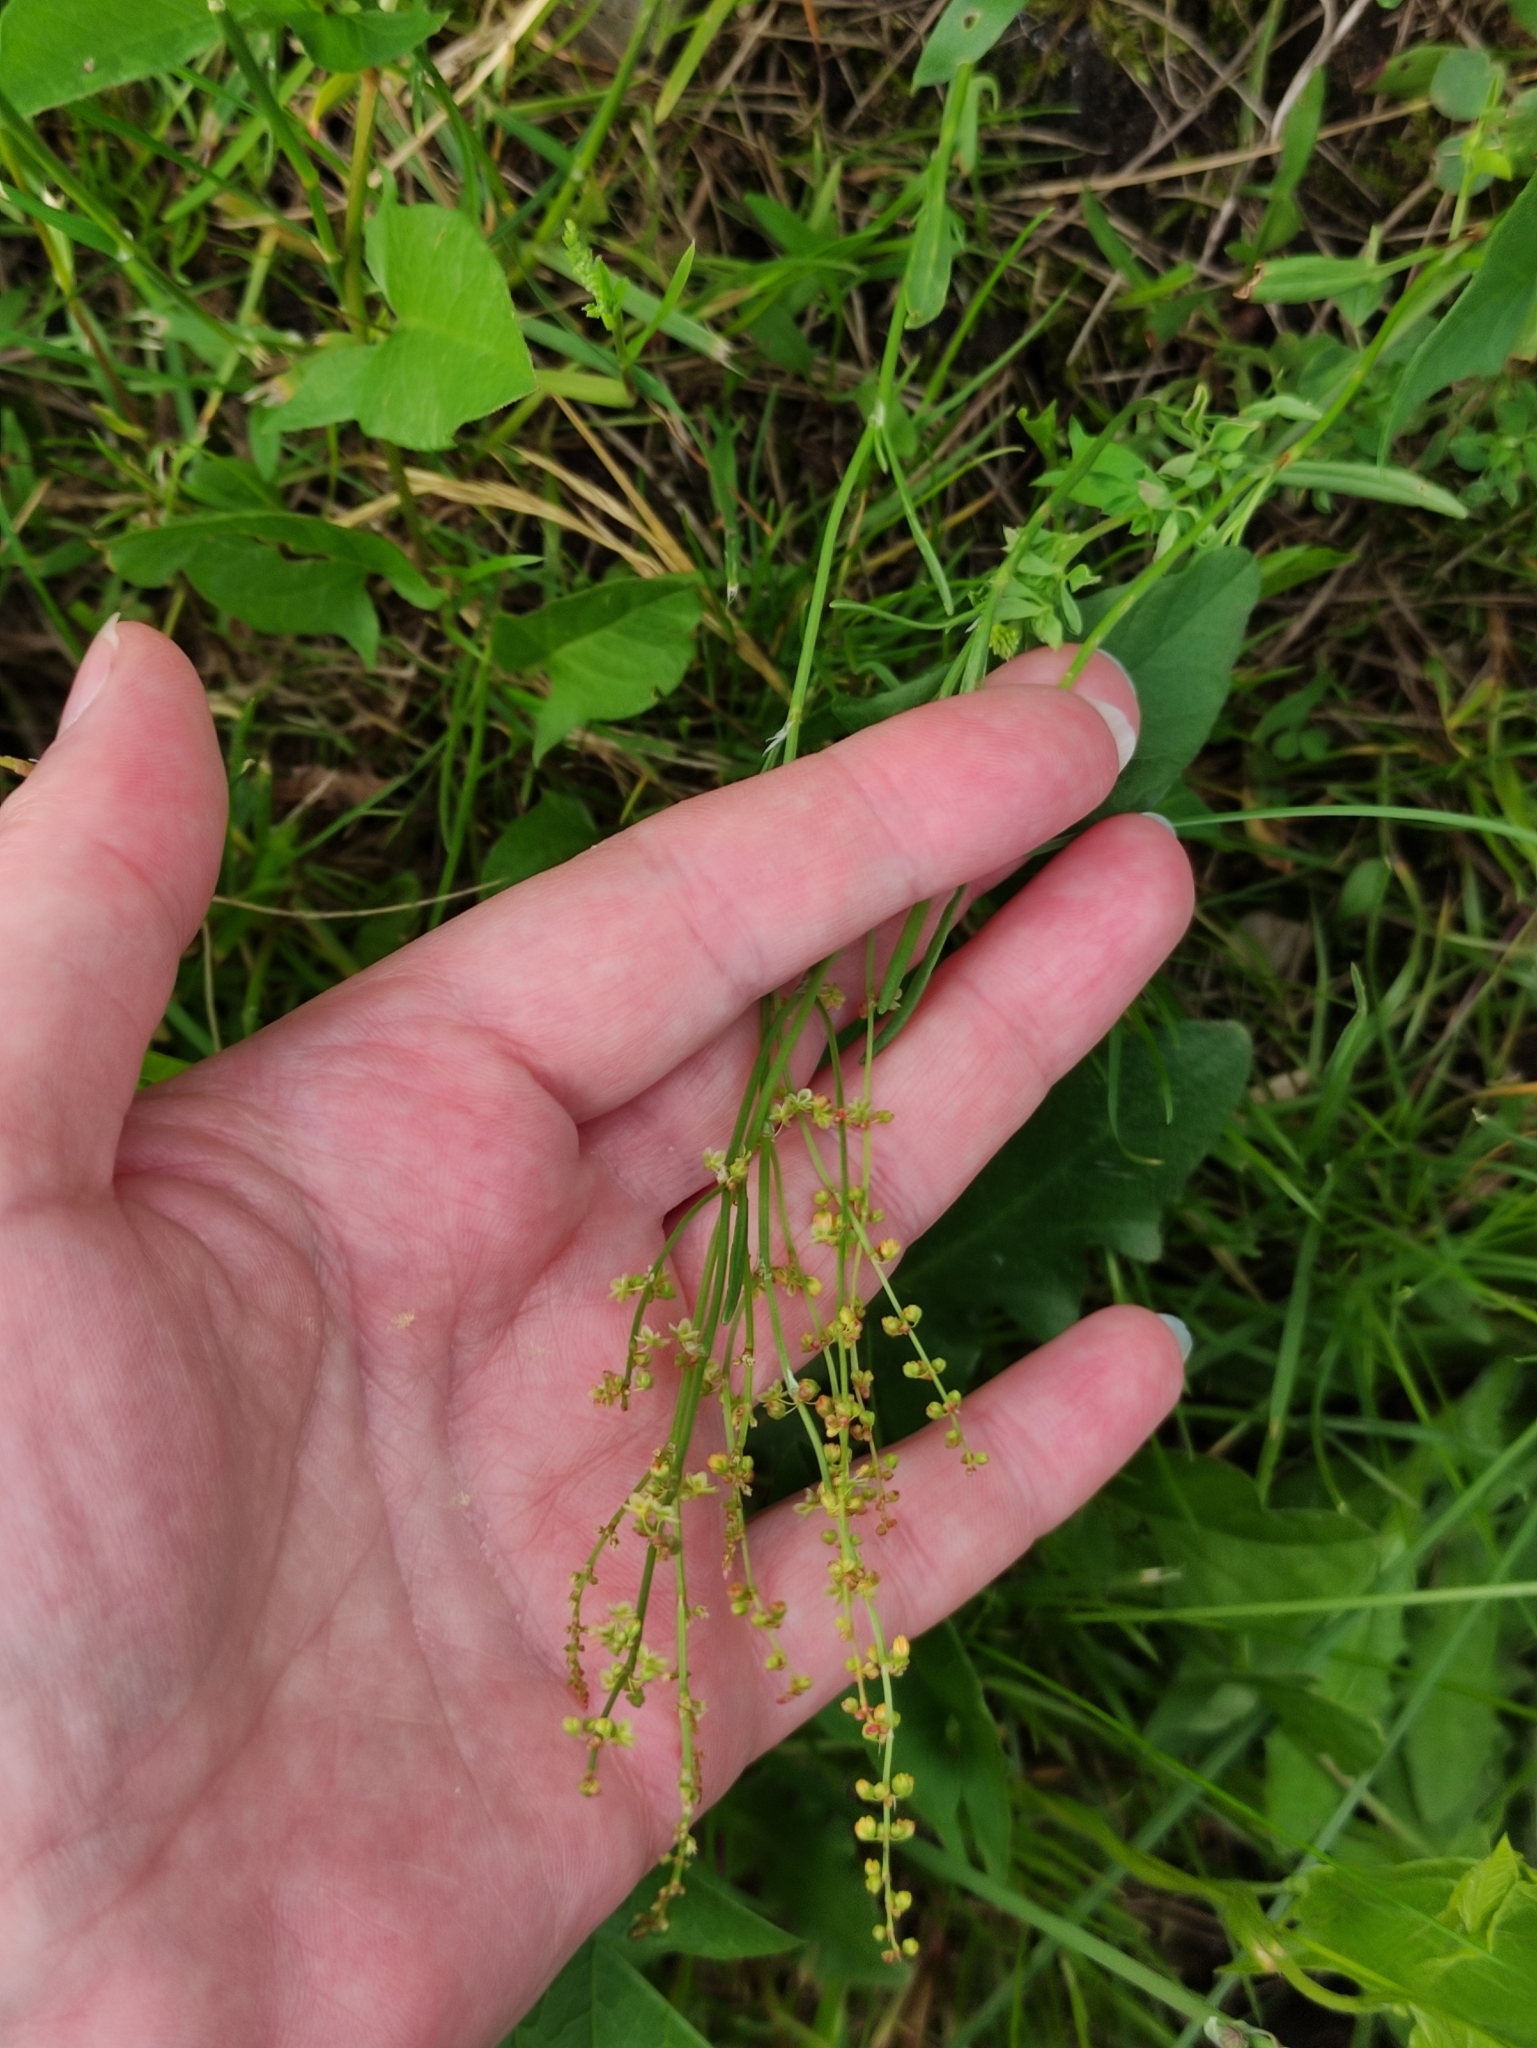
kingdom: Plantae
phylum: Tracheophyta
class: Magnoliopsida
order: Caryophyllales
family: Polygonaceae
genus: Rumex
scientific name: Rumex acetosella
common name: Common sheep sorrel
